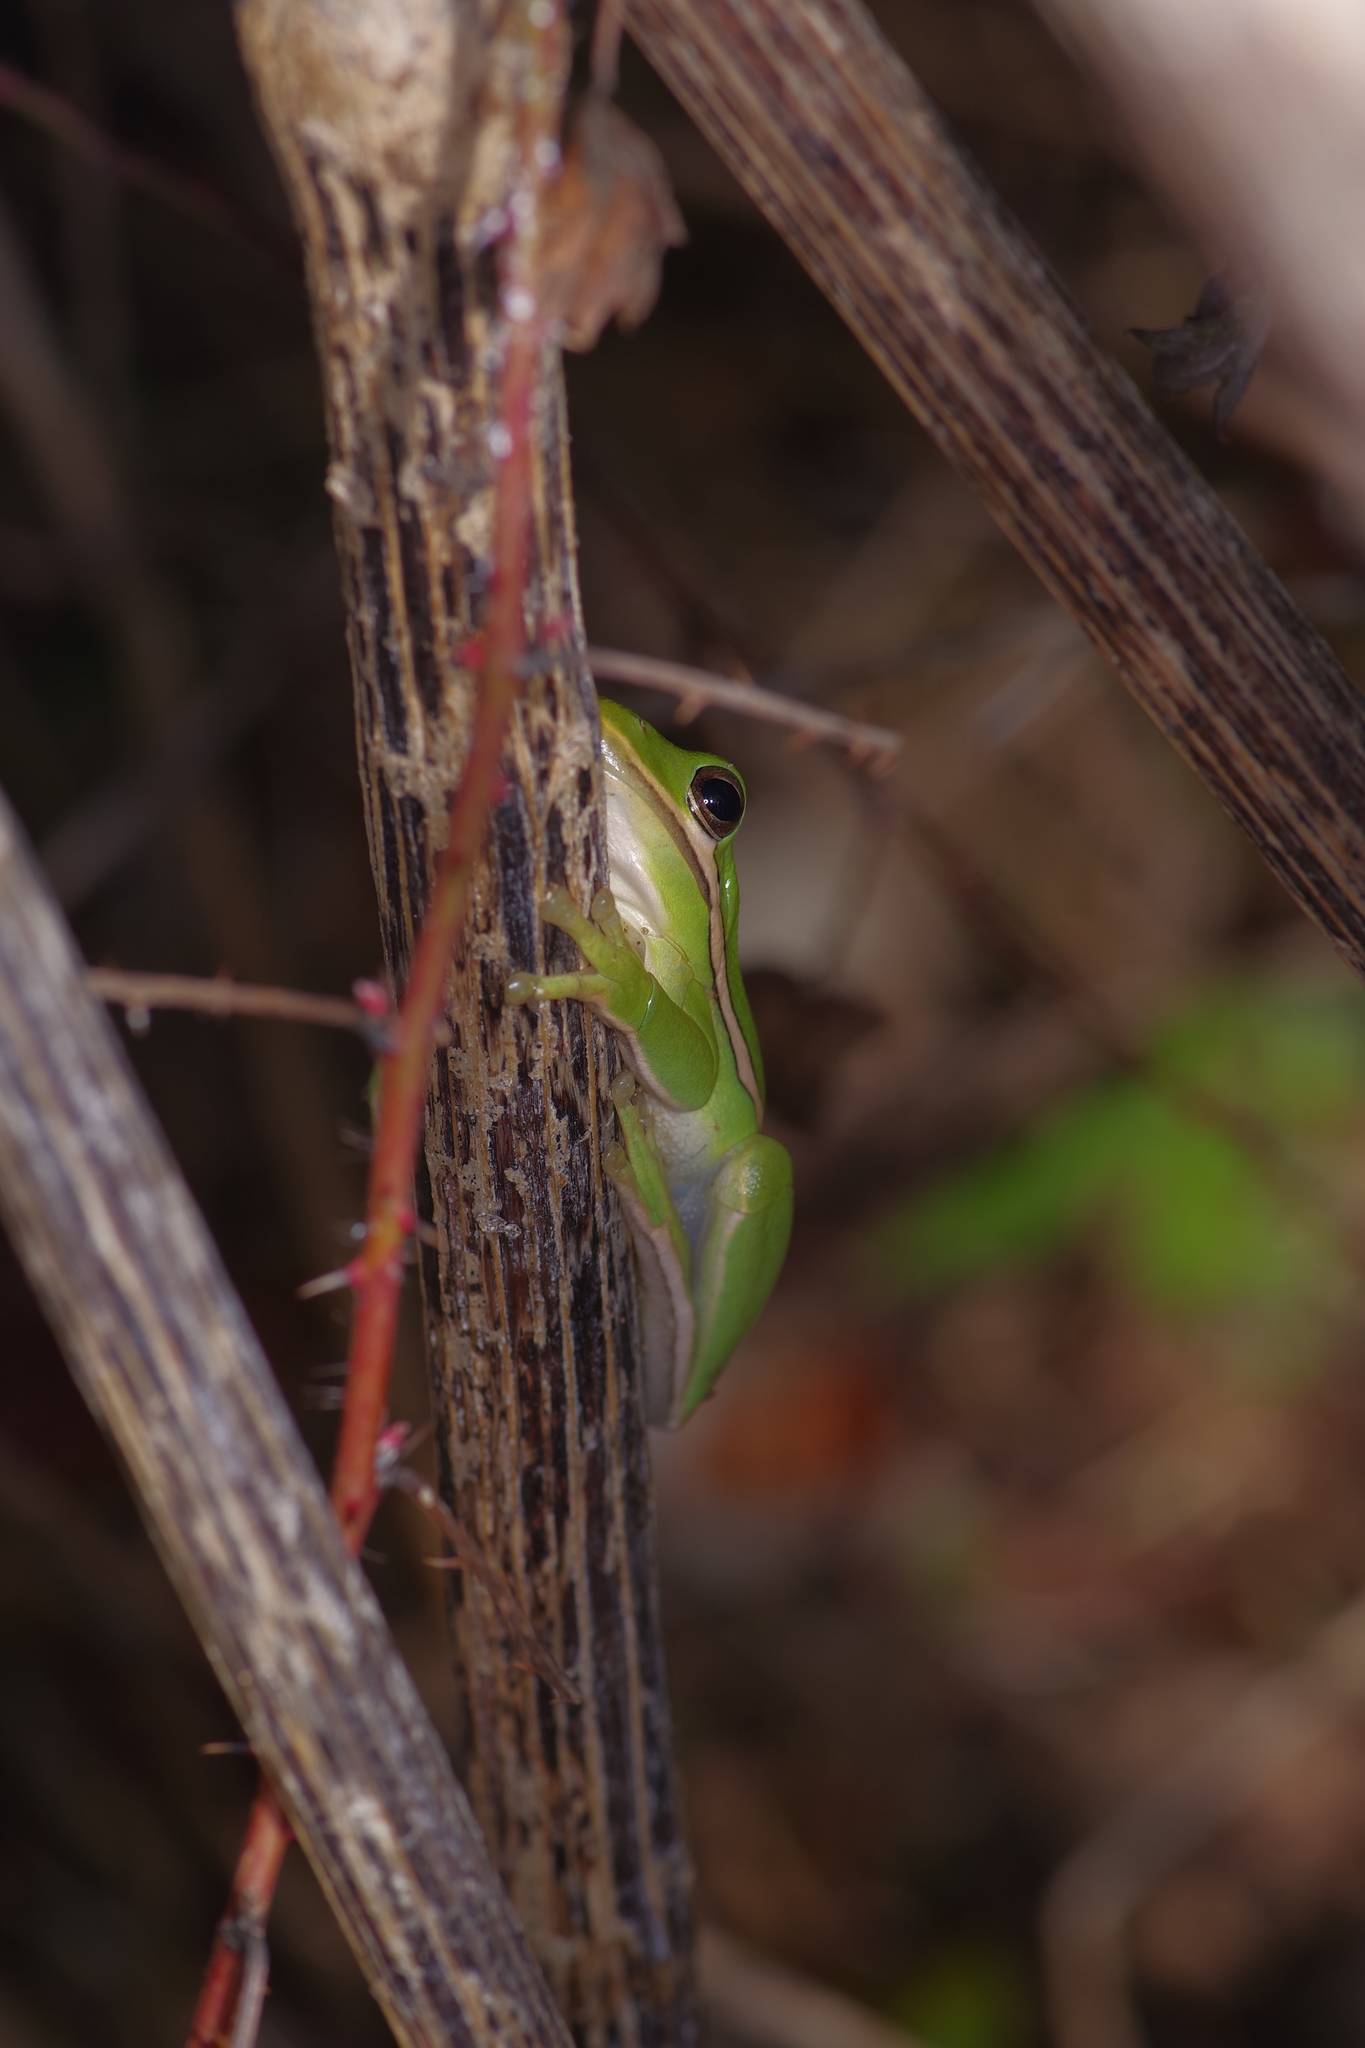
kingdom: Animalia
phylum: Chordata
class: Amphibia
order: Anura
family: Hylidae
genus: Dryophytes
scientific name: Dryophytes cinereus
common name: Green treefrog
